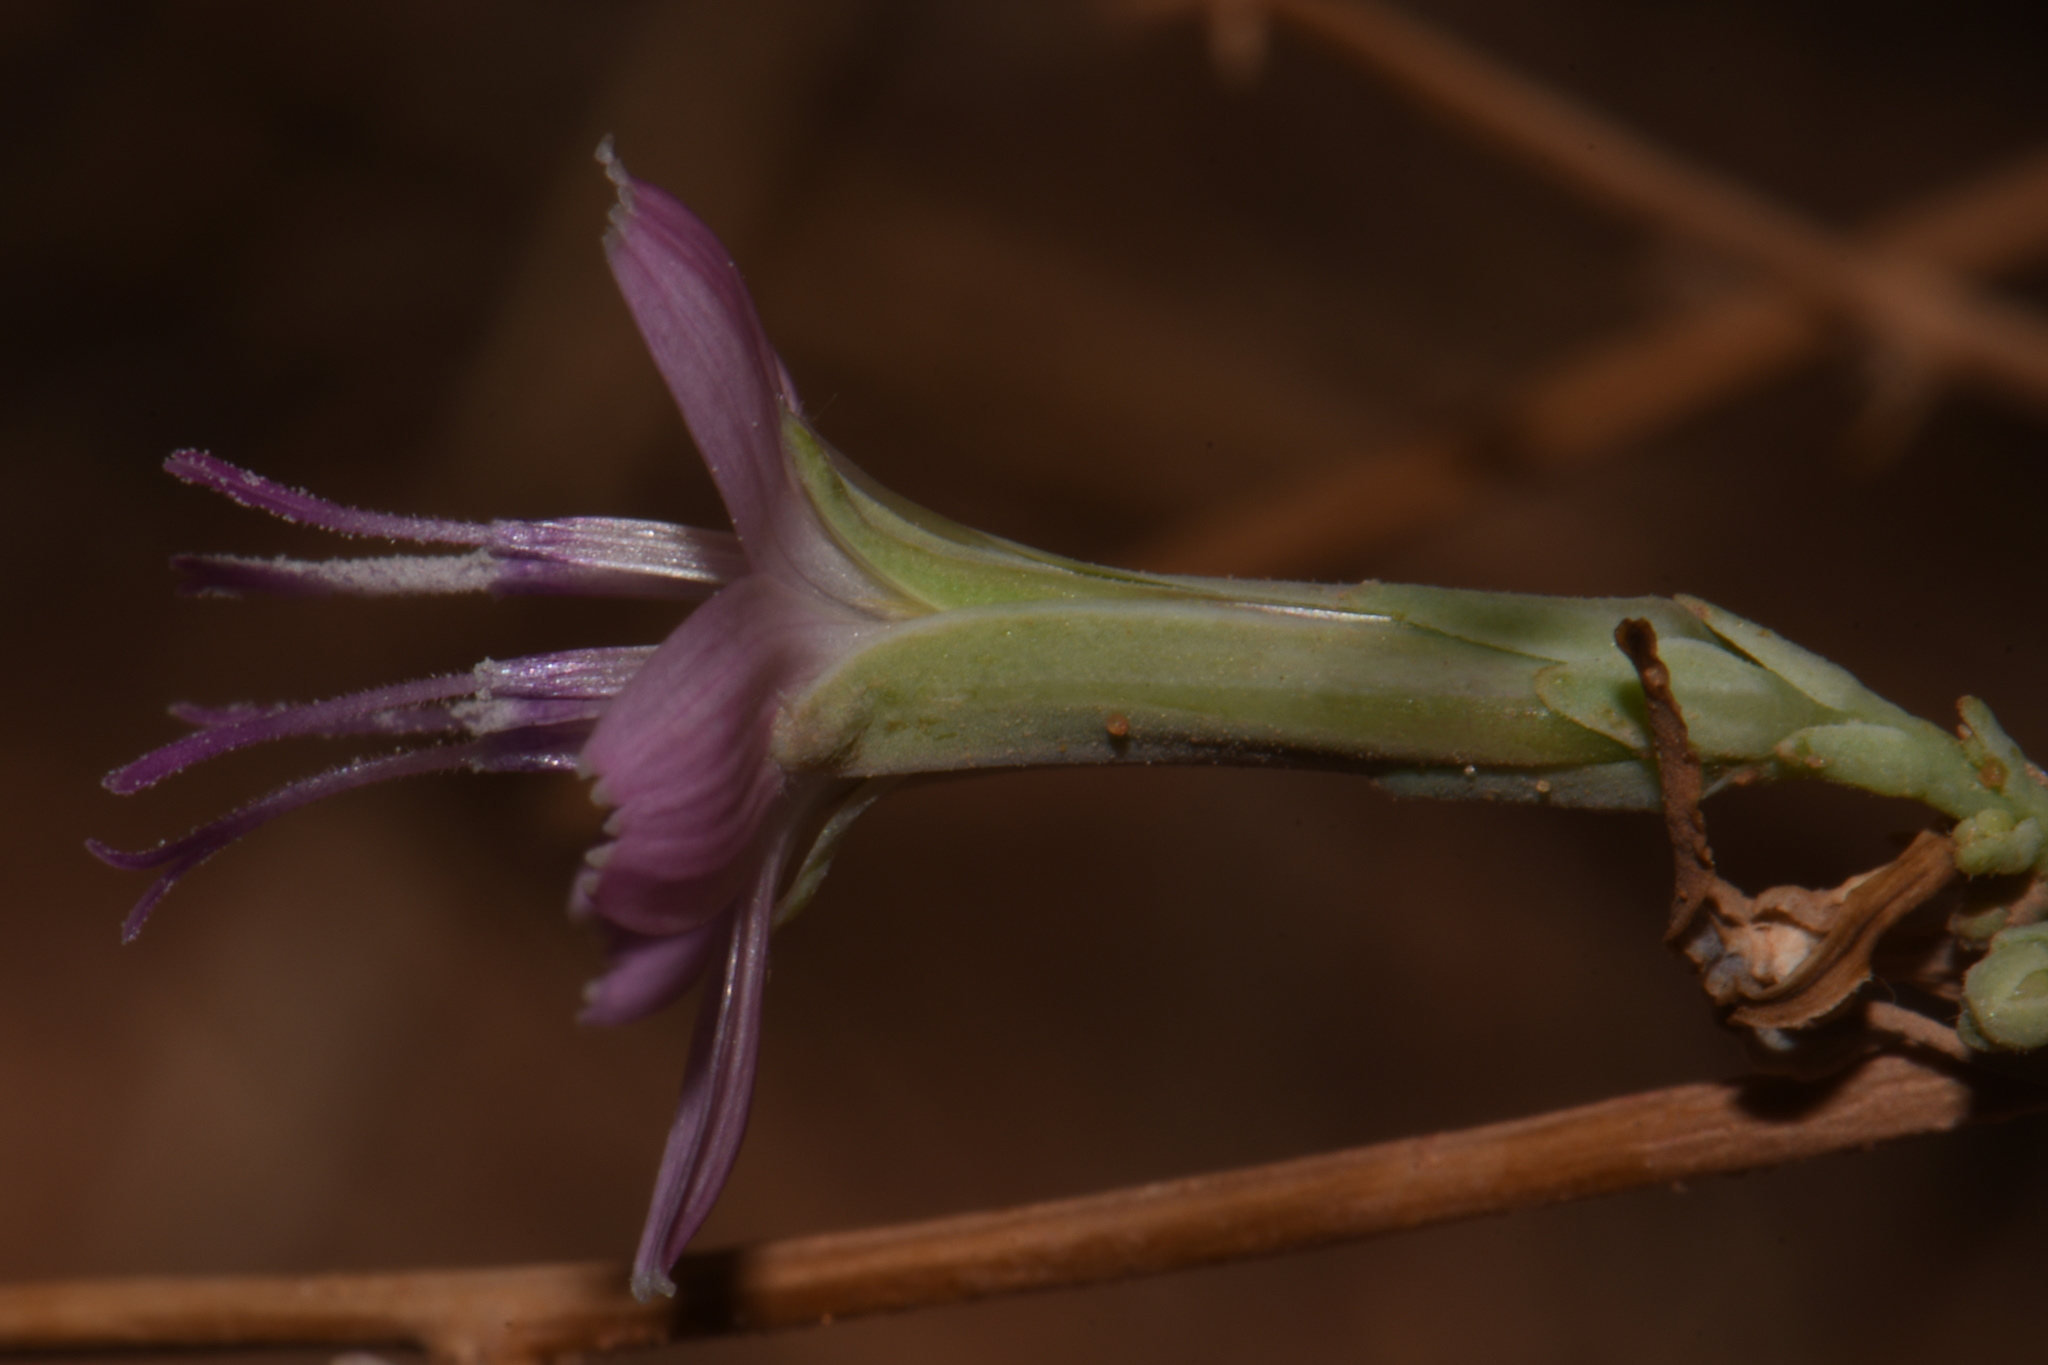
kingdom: Plantae
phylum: Tracheophyta
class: Magnoliopsida
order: Asterales
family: Asteraceae
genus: Stephanomeria
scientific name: Stephanomeria pauciflora
